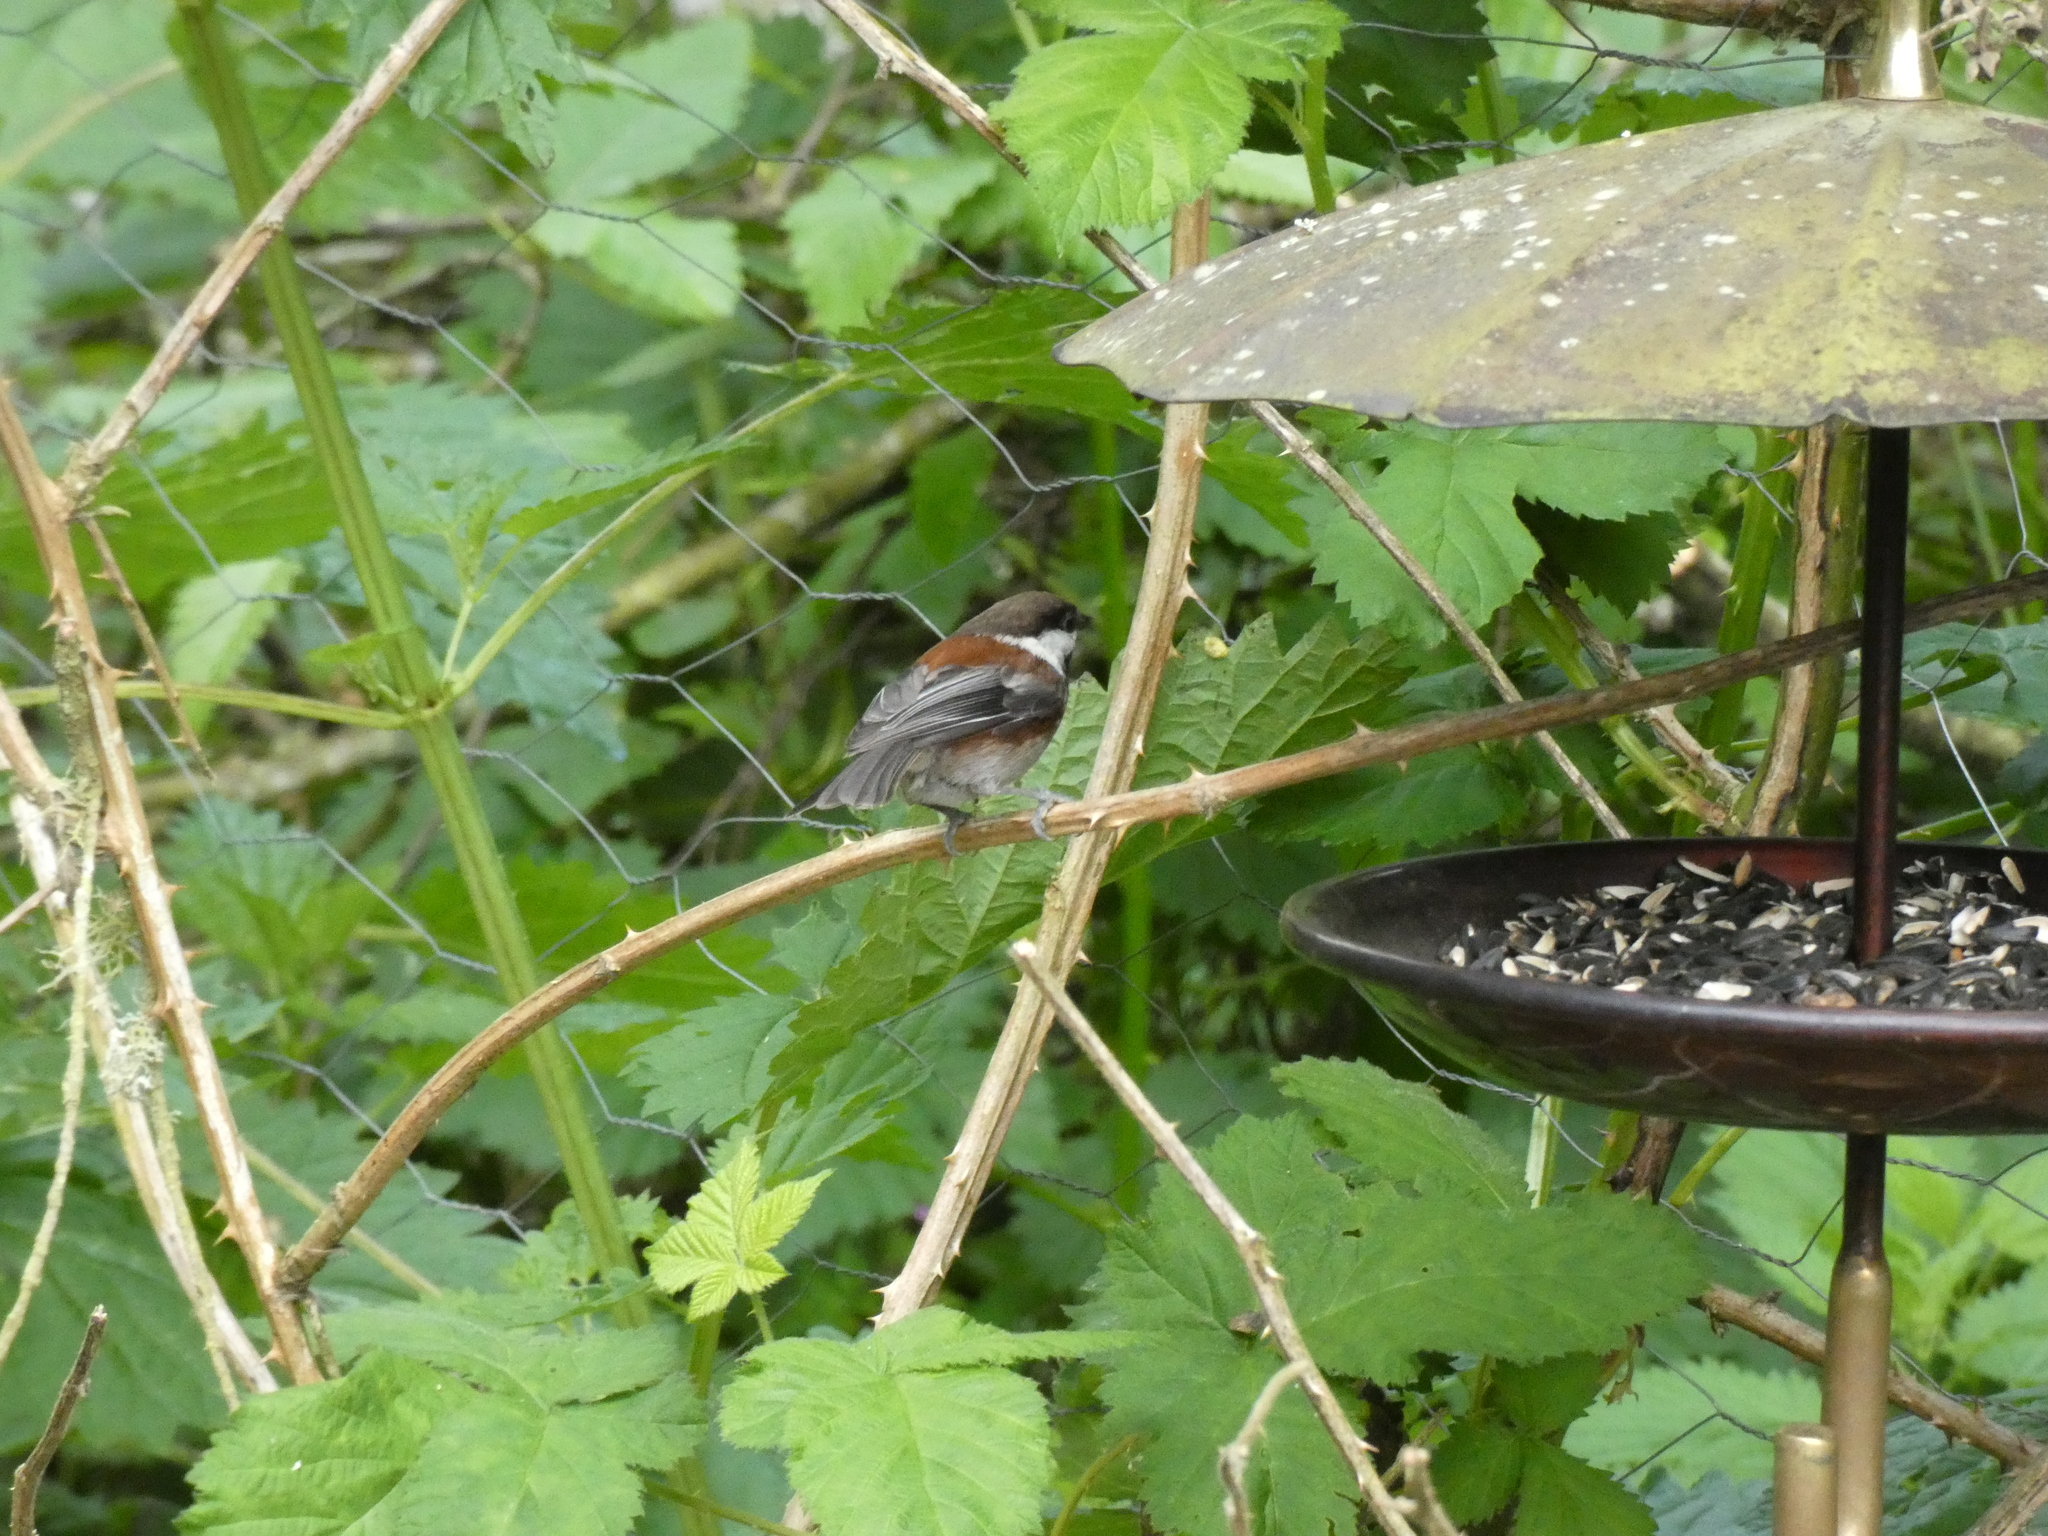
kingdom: Animalia
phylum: Chordata
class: Aves
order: Passeriformes
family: Paridae
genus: Poecile
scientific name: Poecile rufescens
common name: Chestnut-backed chickadee
